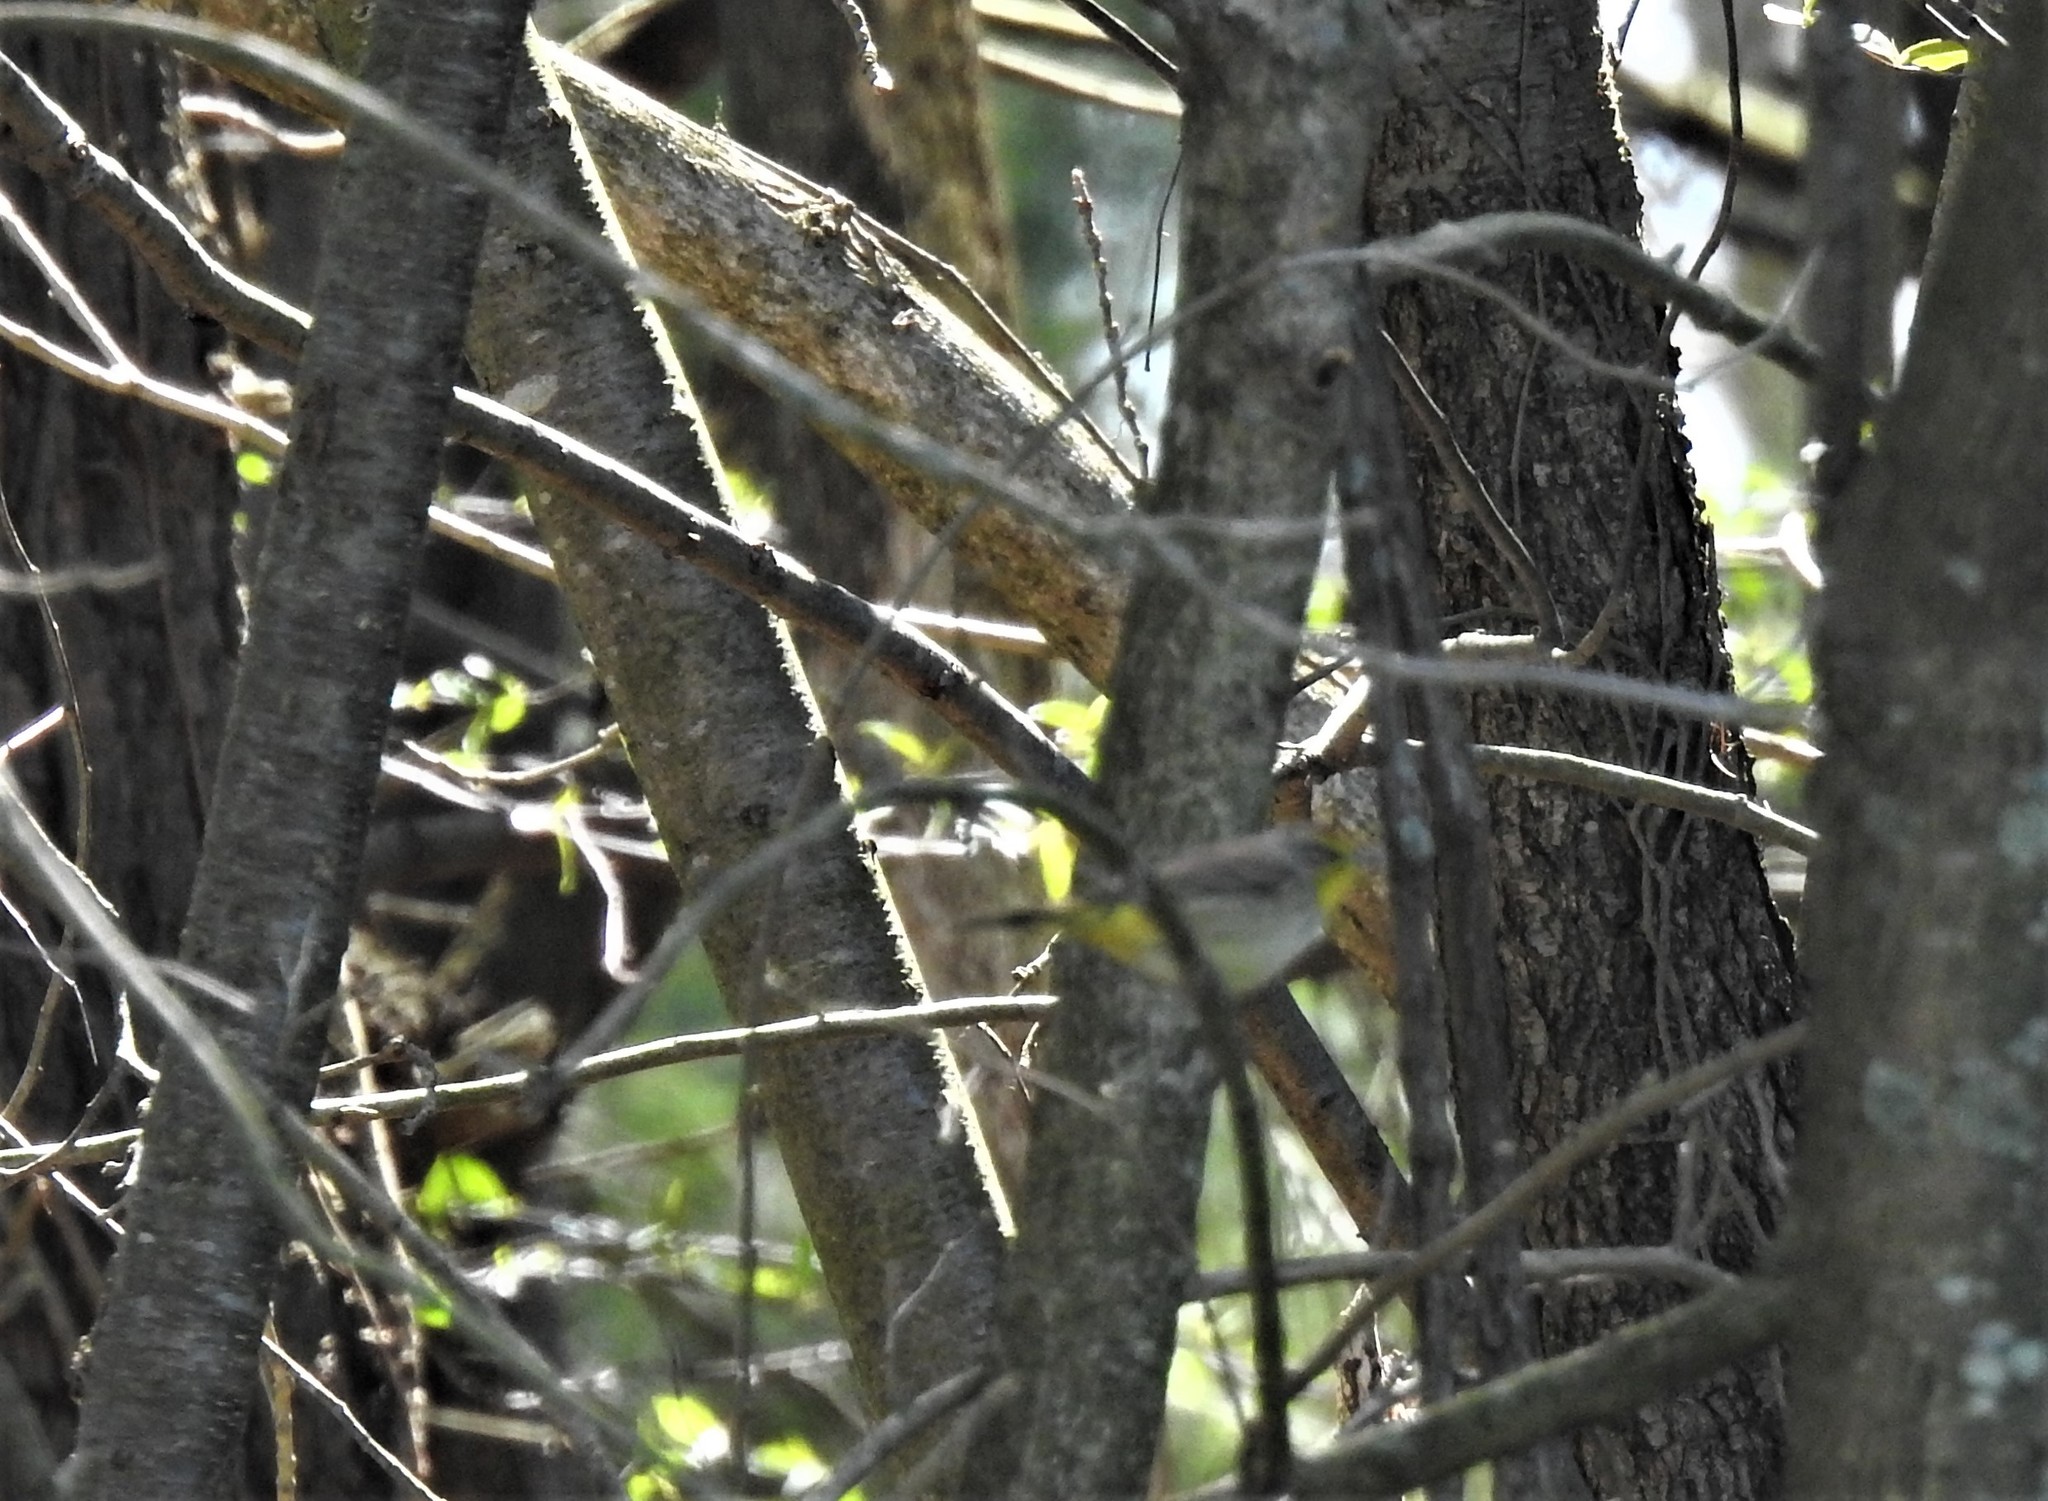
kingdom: Animalia
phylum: Chordata
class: Aves
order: Passeriformes
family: Parulidae
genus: Setophaga
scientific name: Setophaga palmarum
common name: Palm warbler
